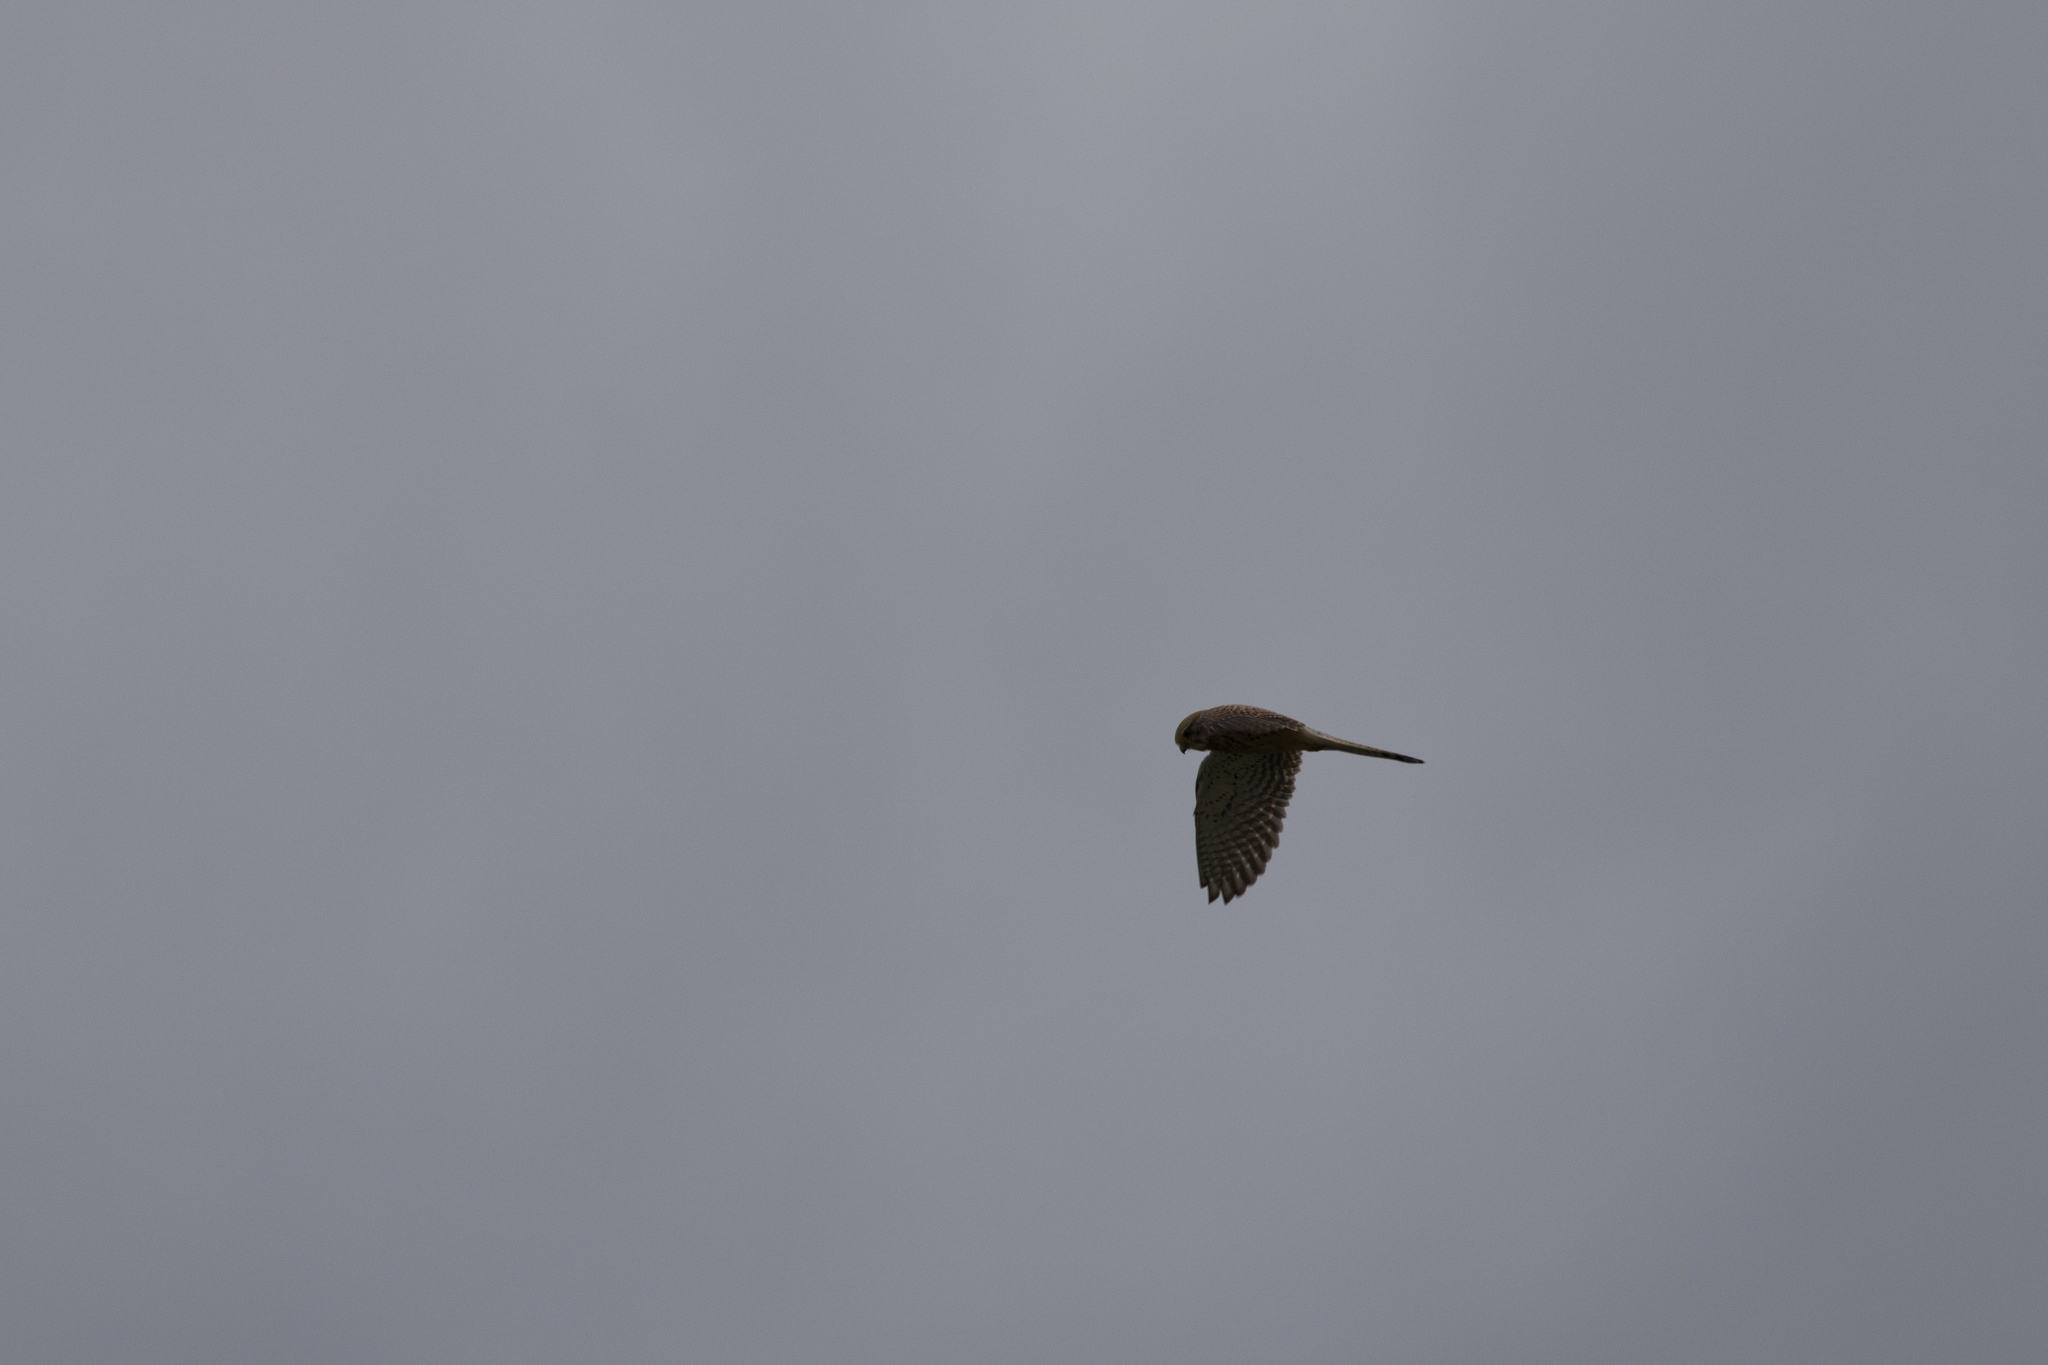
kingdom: Animalia
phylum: Chordata
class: Aves
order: Falconiformes
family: Falconidae
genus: Falco
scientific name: Falco tinnunculus
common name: Common kestrel
